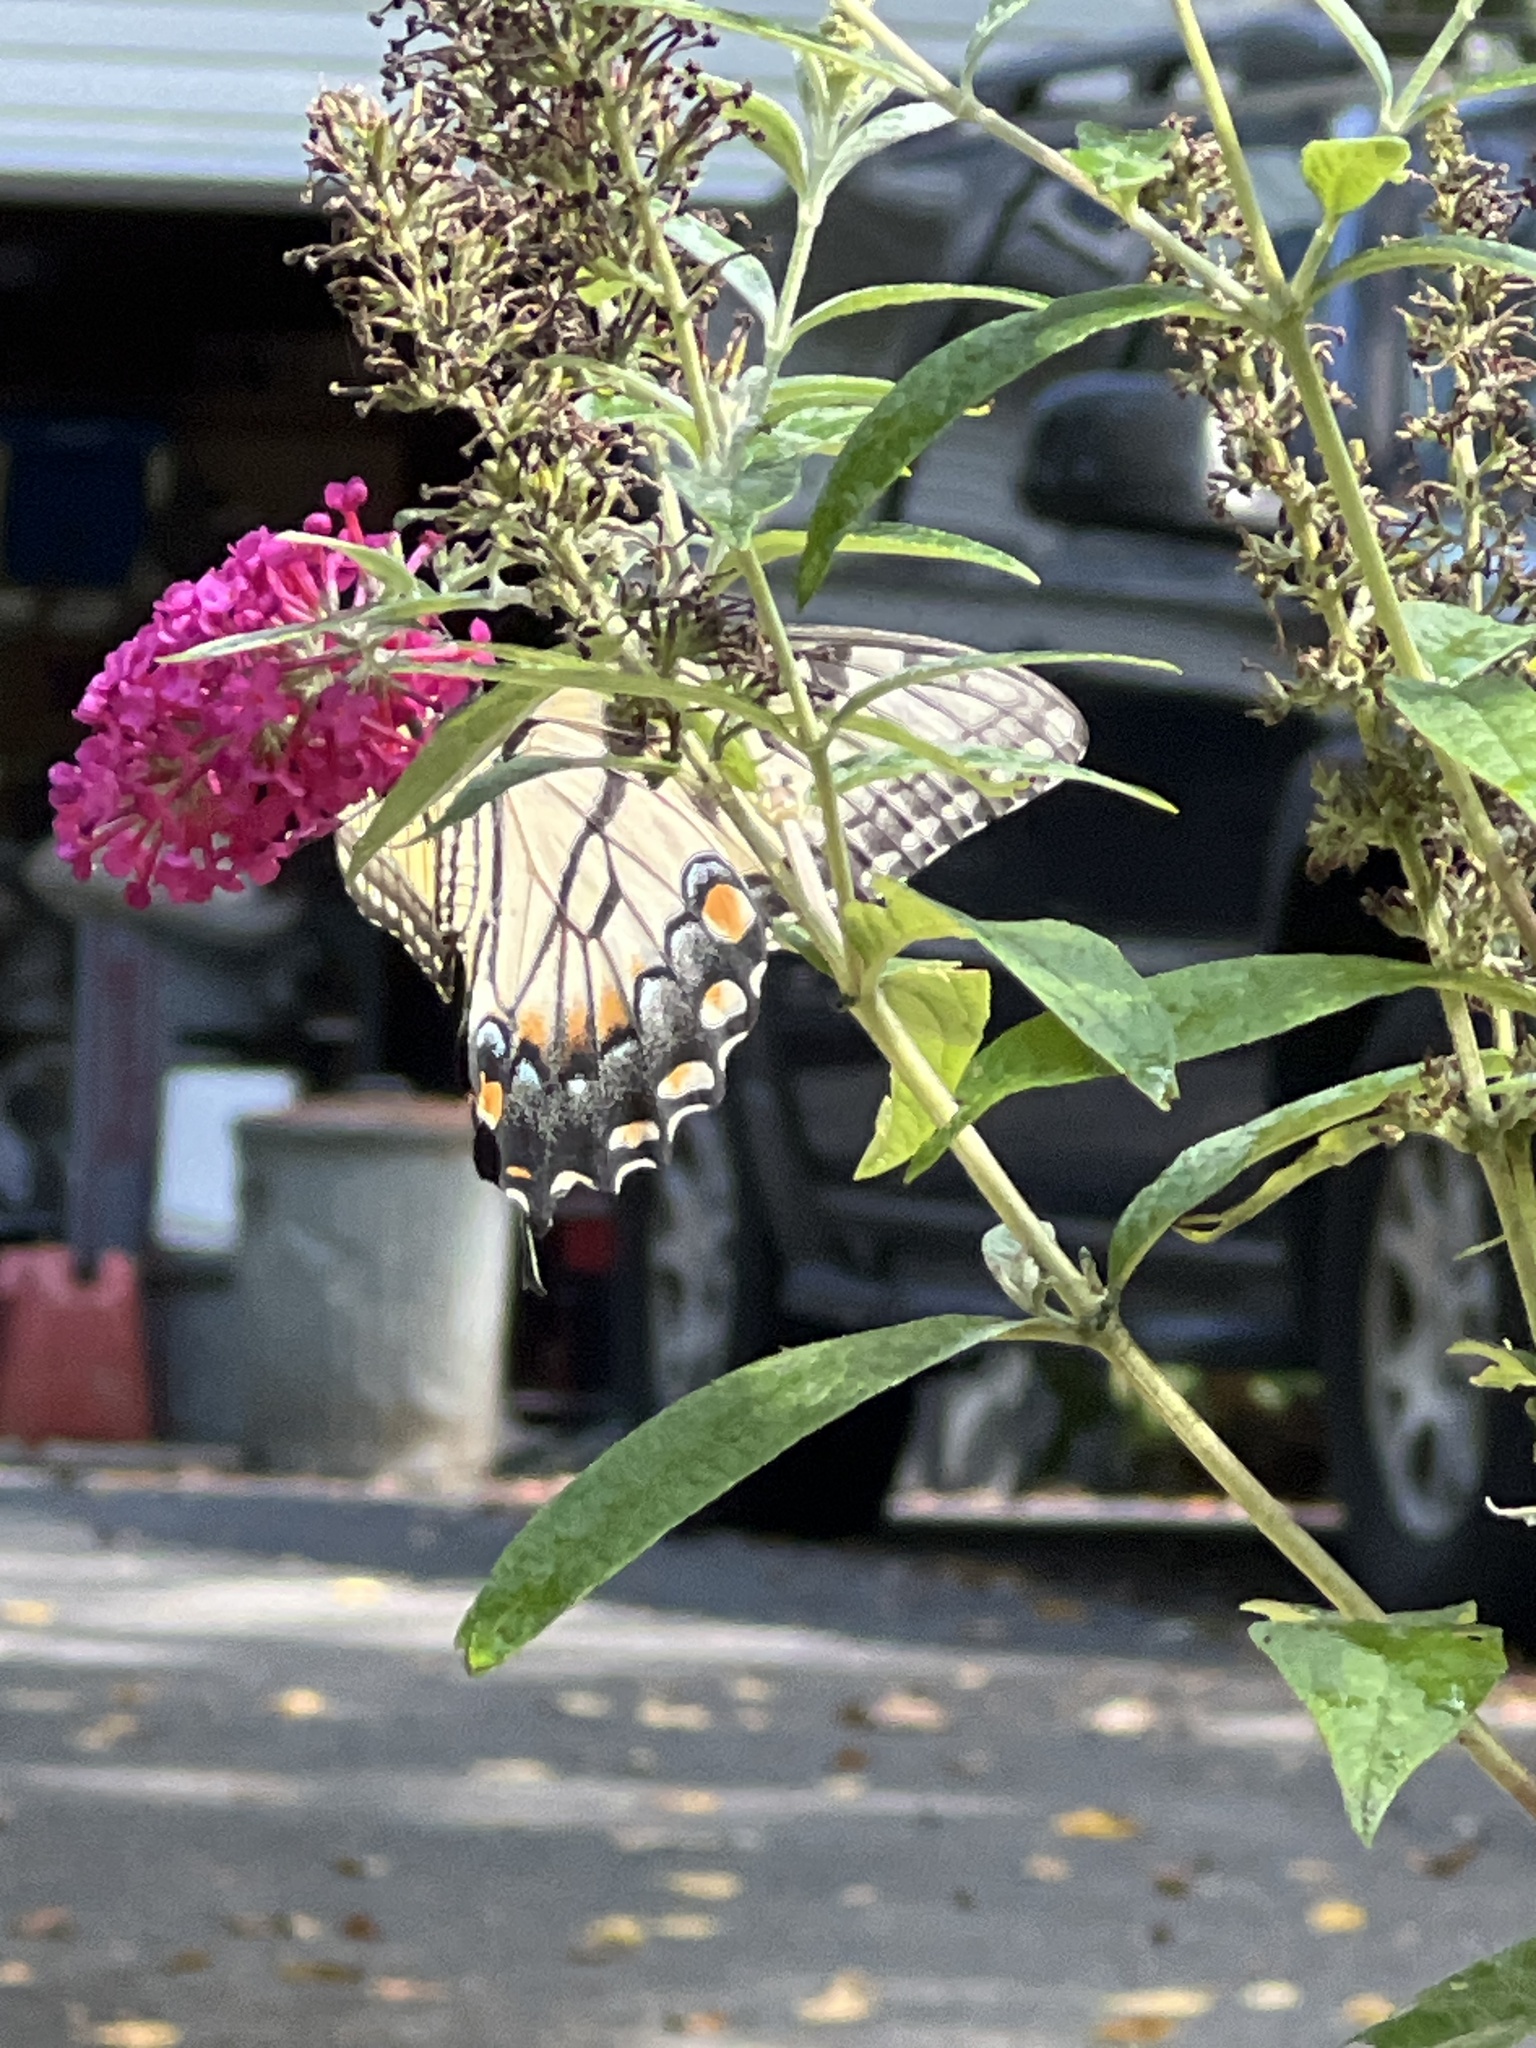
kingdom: Animalia
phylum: Arthropoda
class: Insecta
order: Lepidoptera
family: Papilionidae
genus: Papilio
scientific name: Papilio glaucus
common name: Tiger swallowtail
